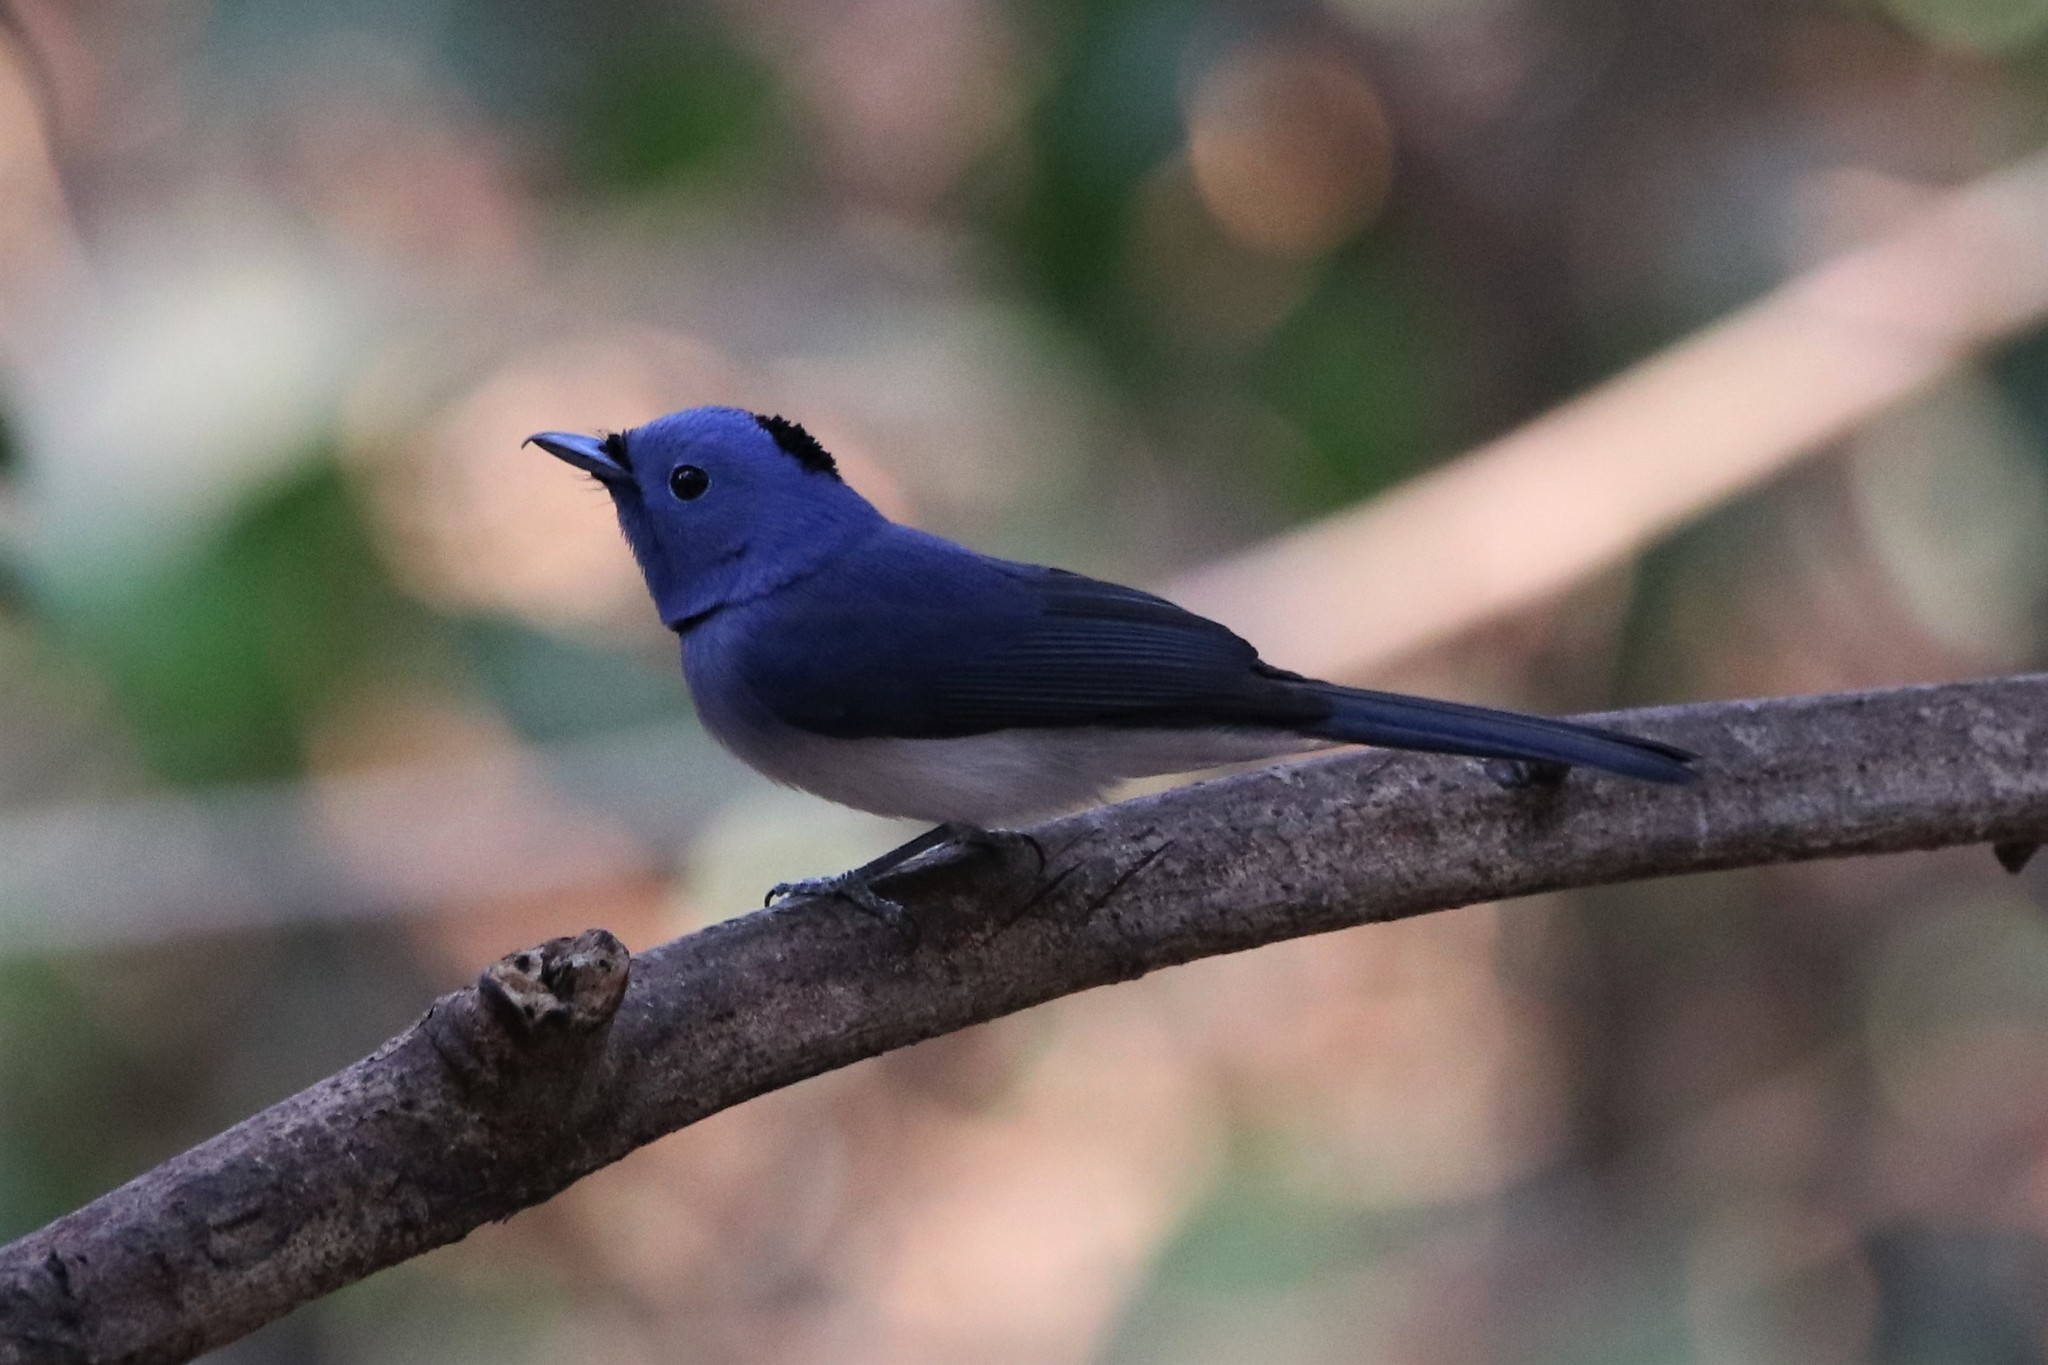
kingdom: Animalia
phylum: Chordata
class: Aves
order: Passeriformes
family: Monarchidae
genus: Hypothymis
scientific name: Hypothymis azurea
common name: Black-naped monarch
